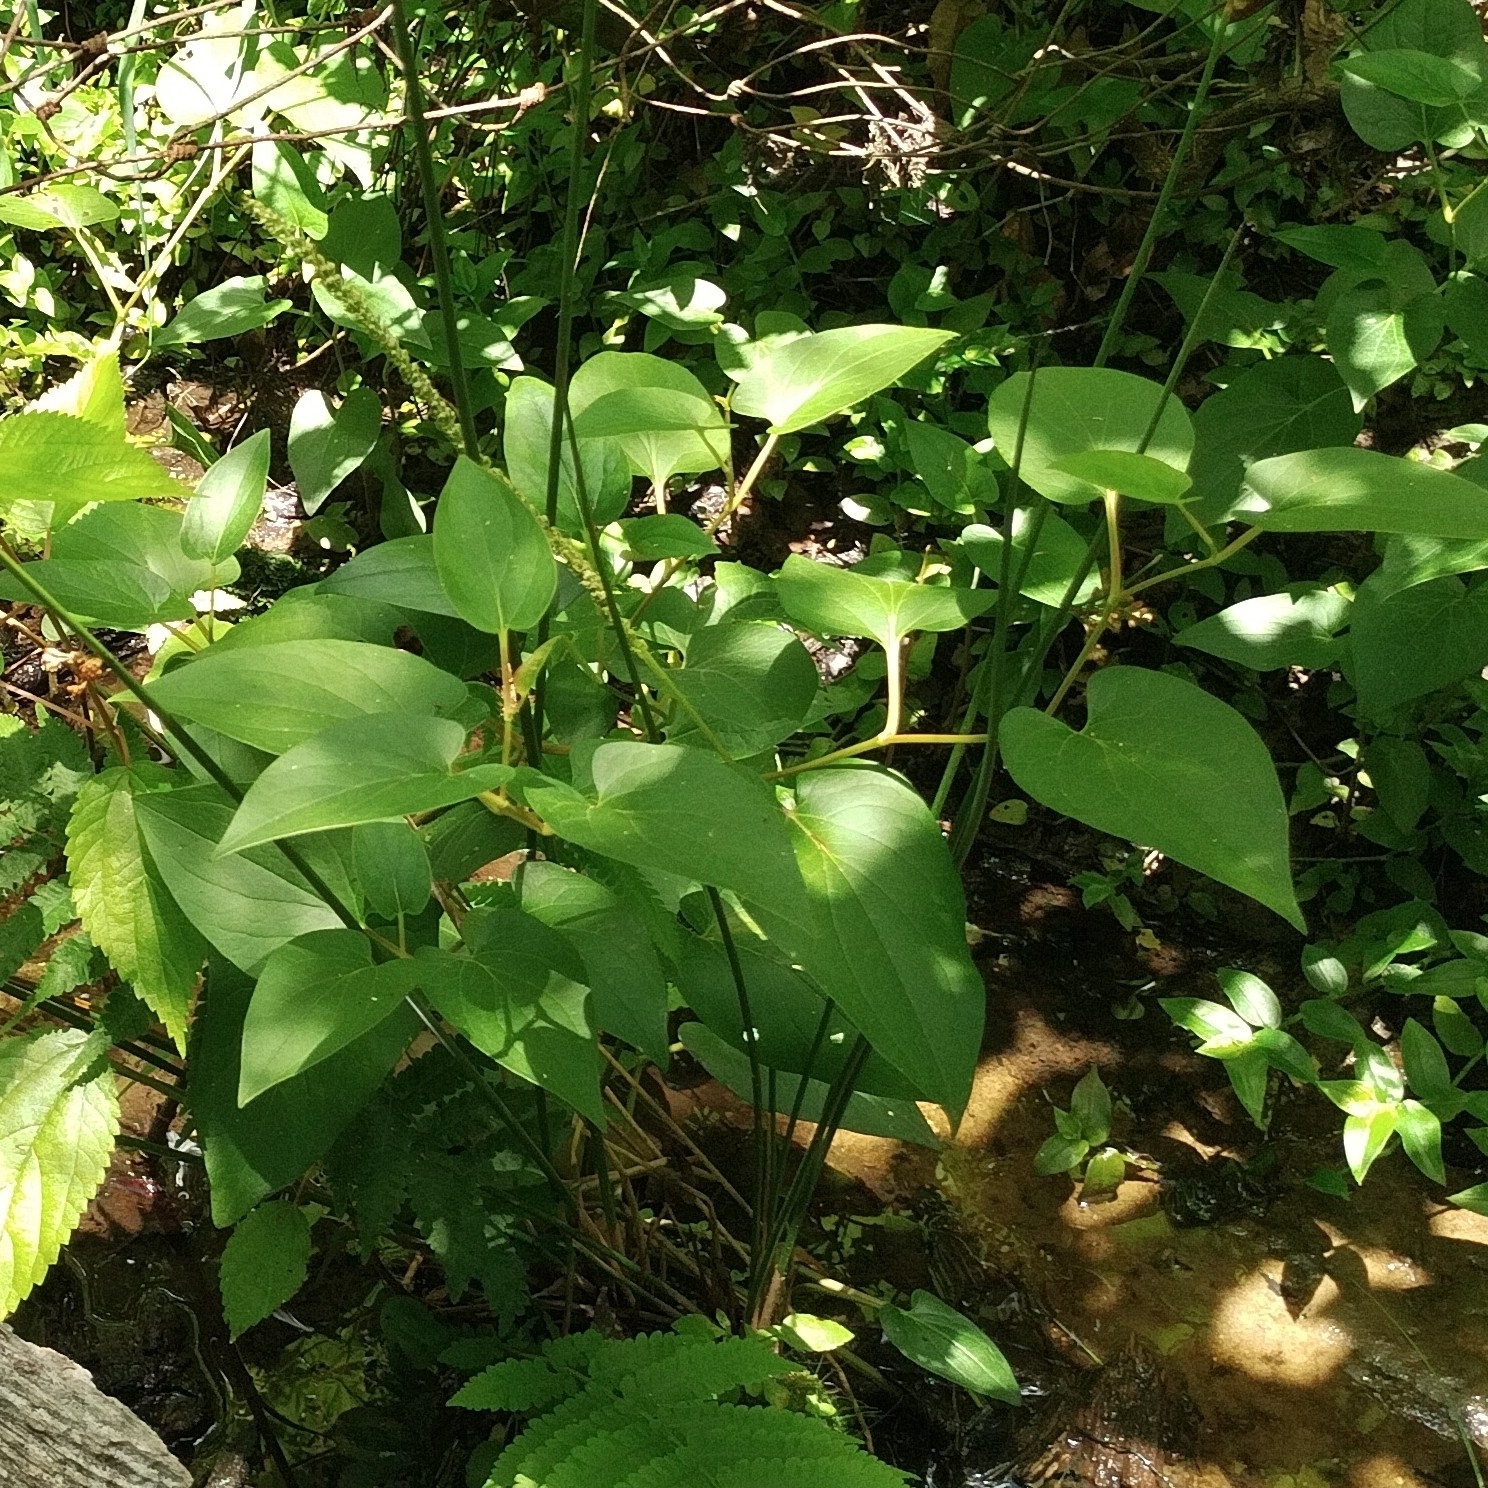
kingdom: Plantae
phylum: Tracheophyta
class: Magnoliopsida
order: Piperales
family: Saururaceae
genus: Saururus
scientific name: Saururus cernuus
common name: Lizard's-tail
